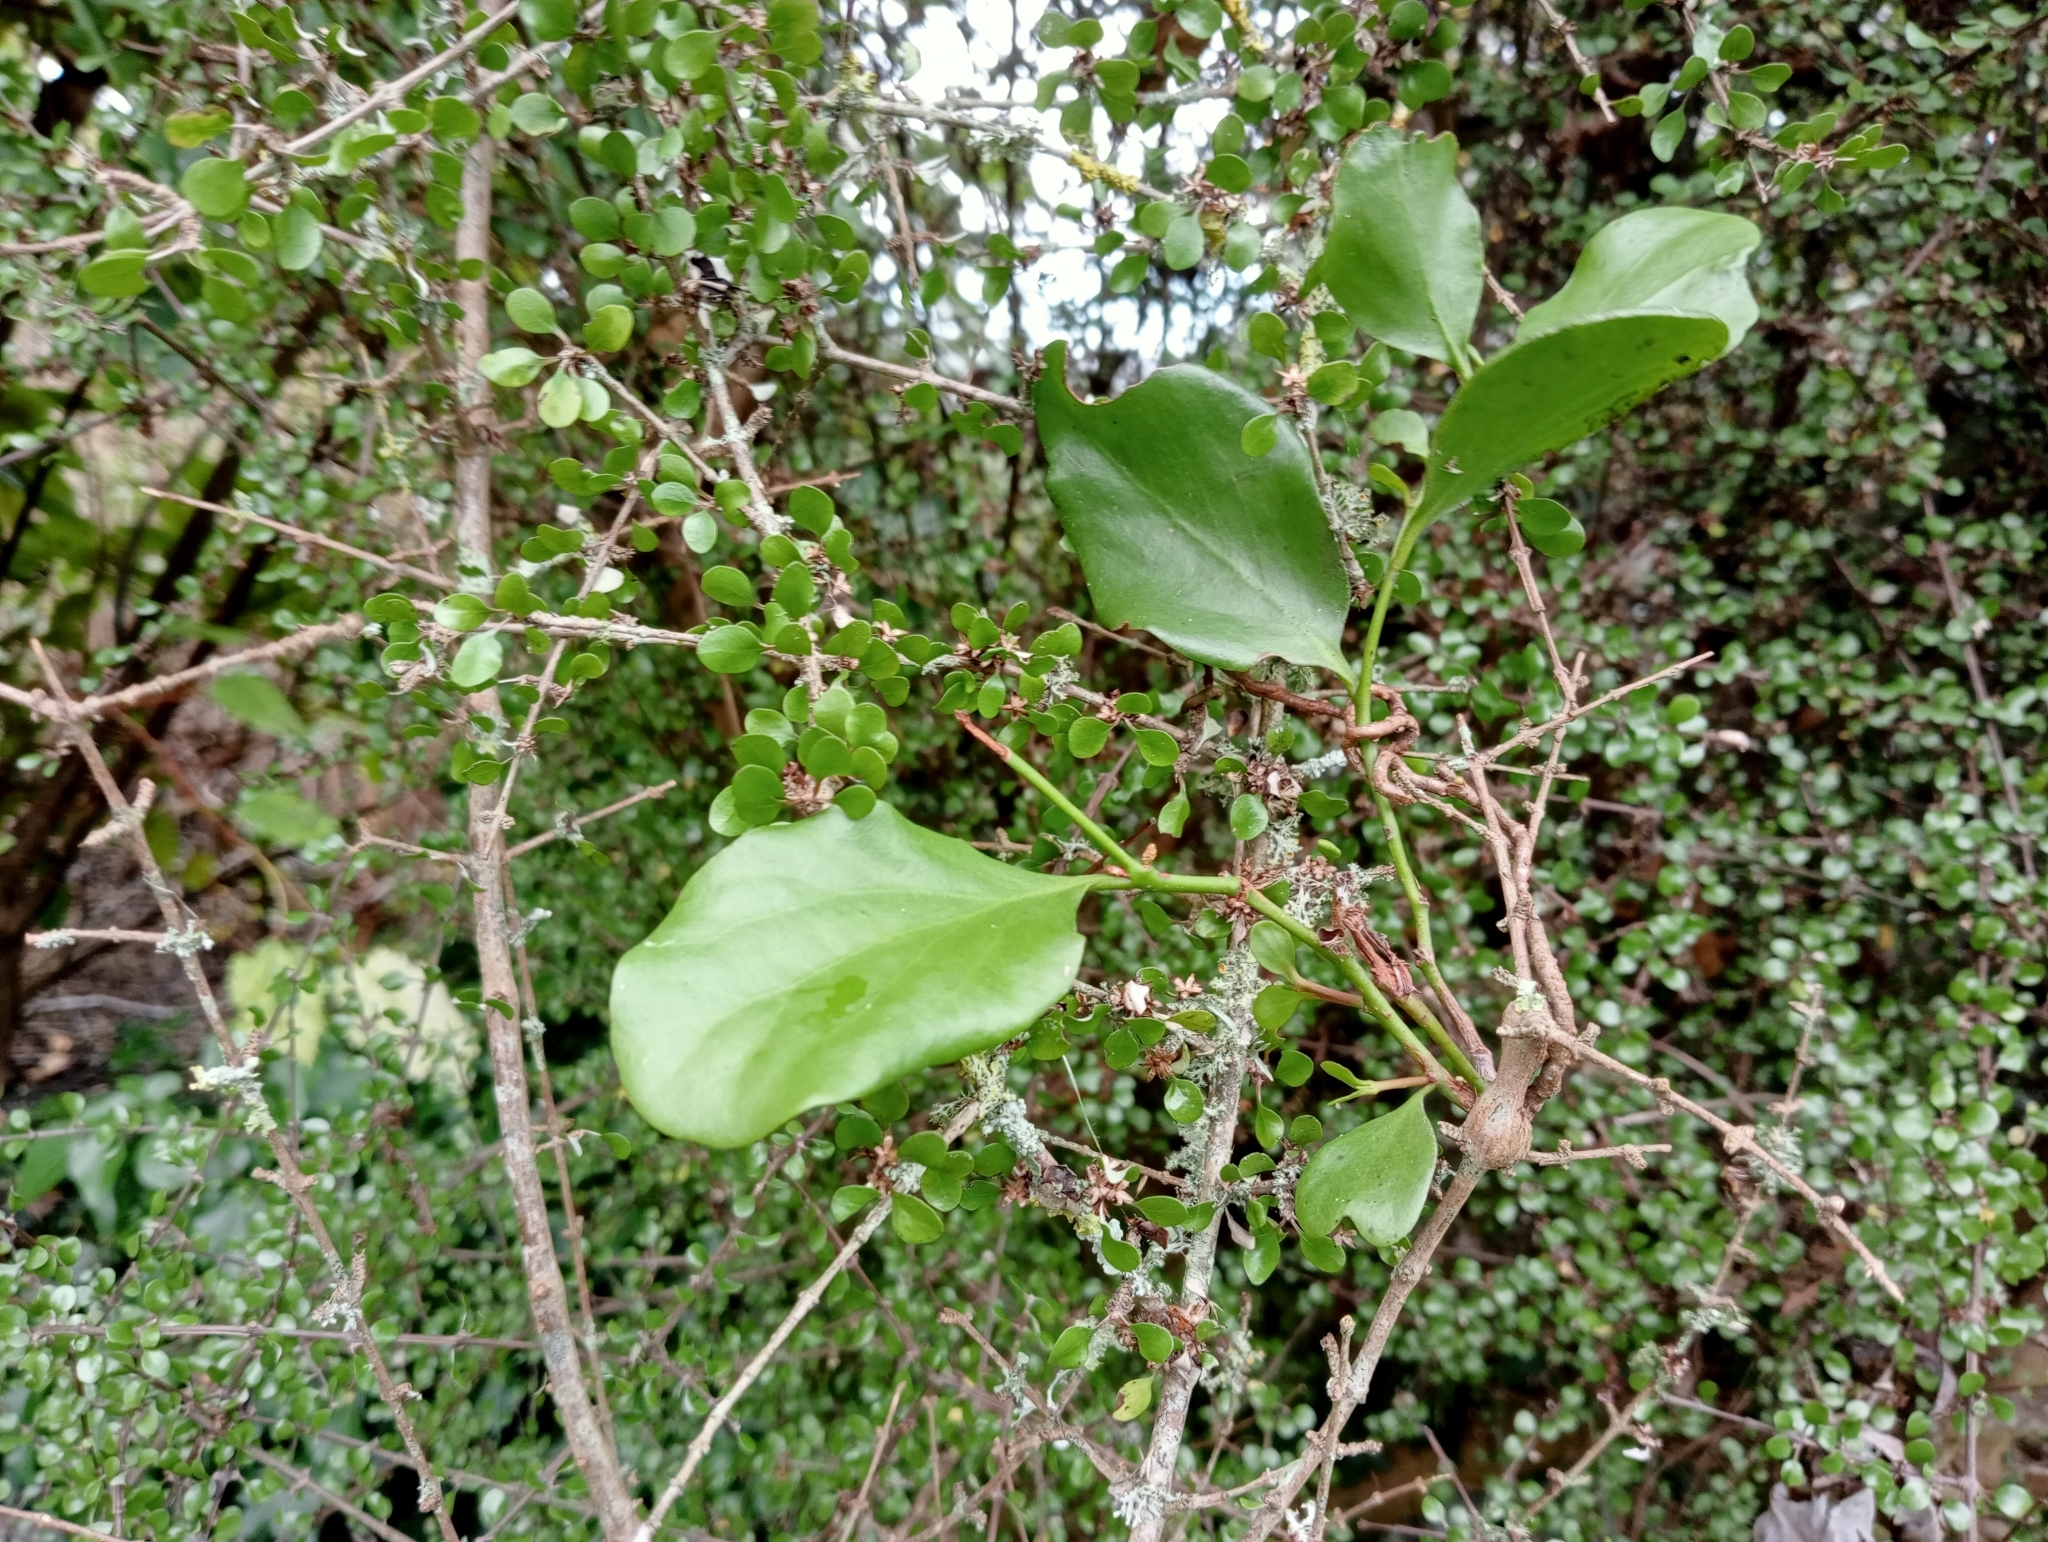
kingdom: Plantae
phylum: Tracheophyta
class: Magnoliopsida
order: Santalales
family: Loranthaceae
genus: Ileostylus
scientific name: Ileostylus micranthus
